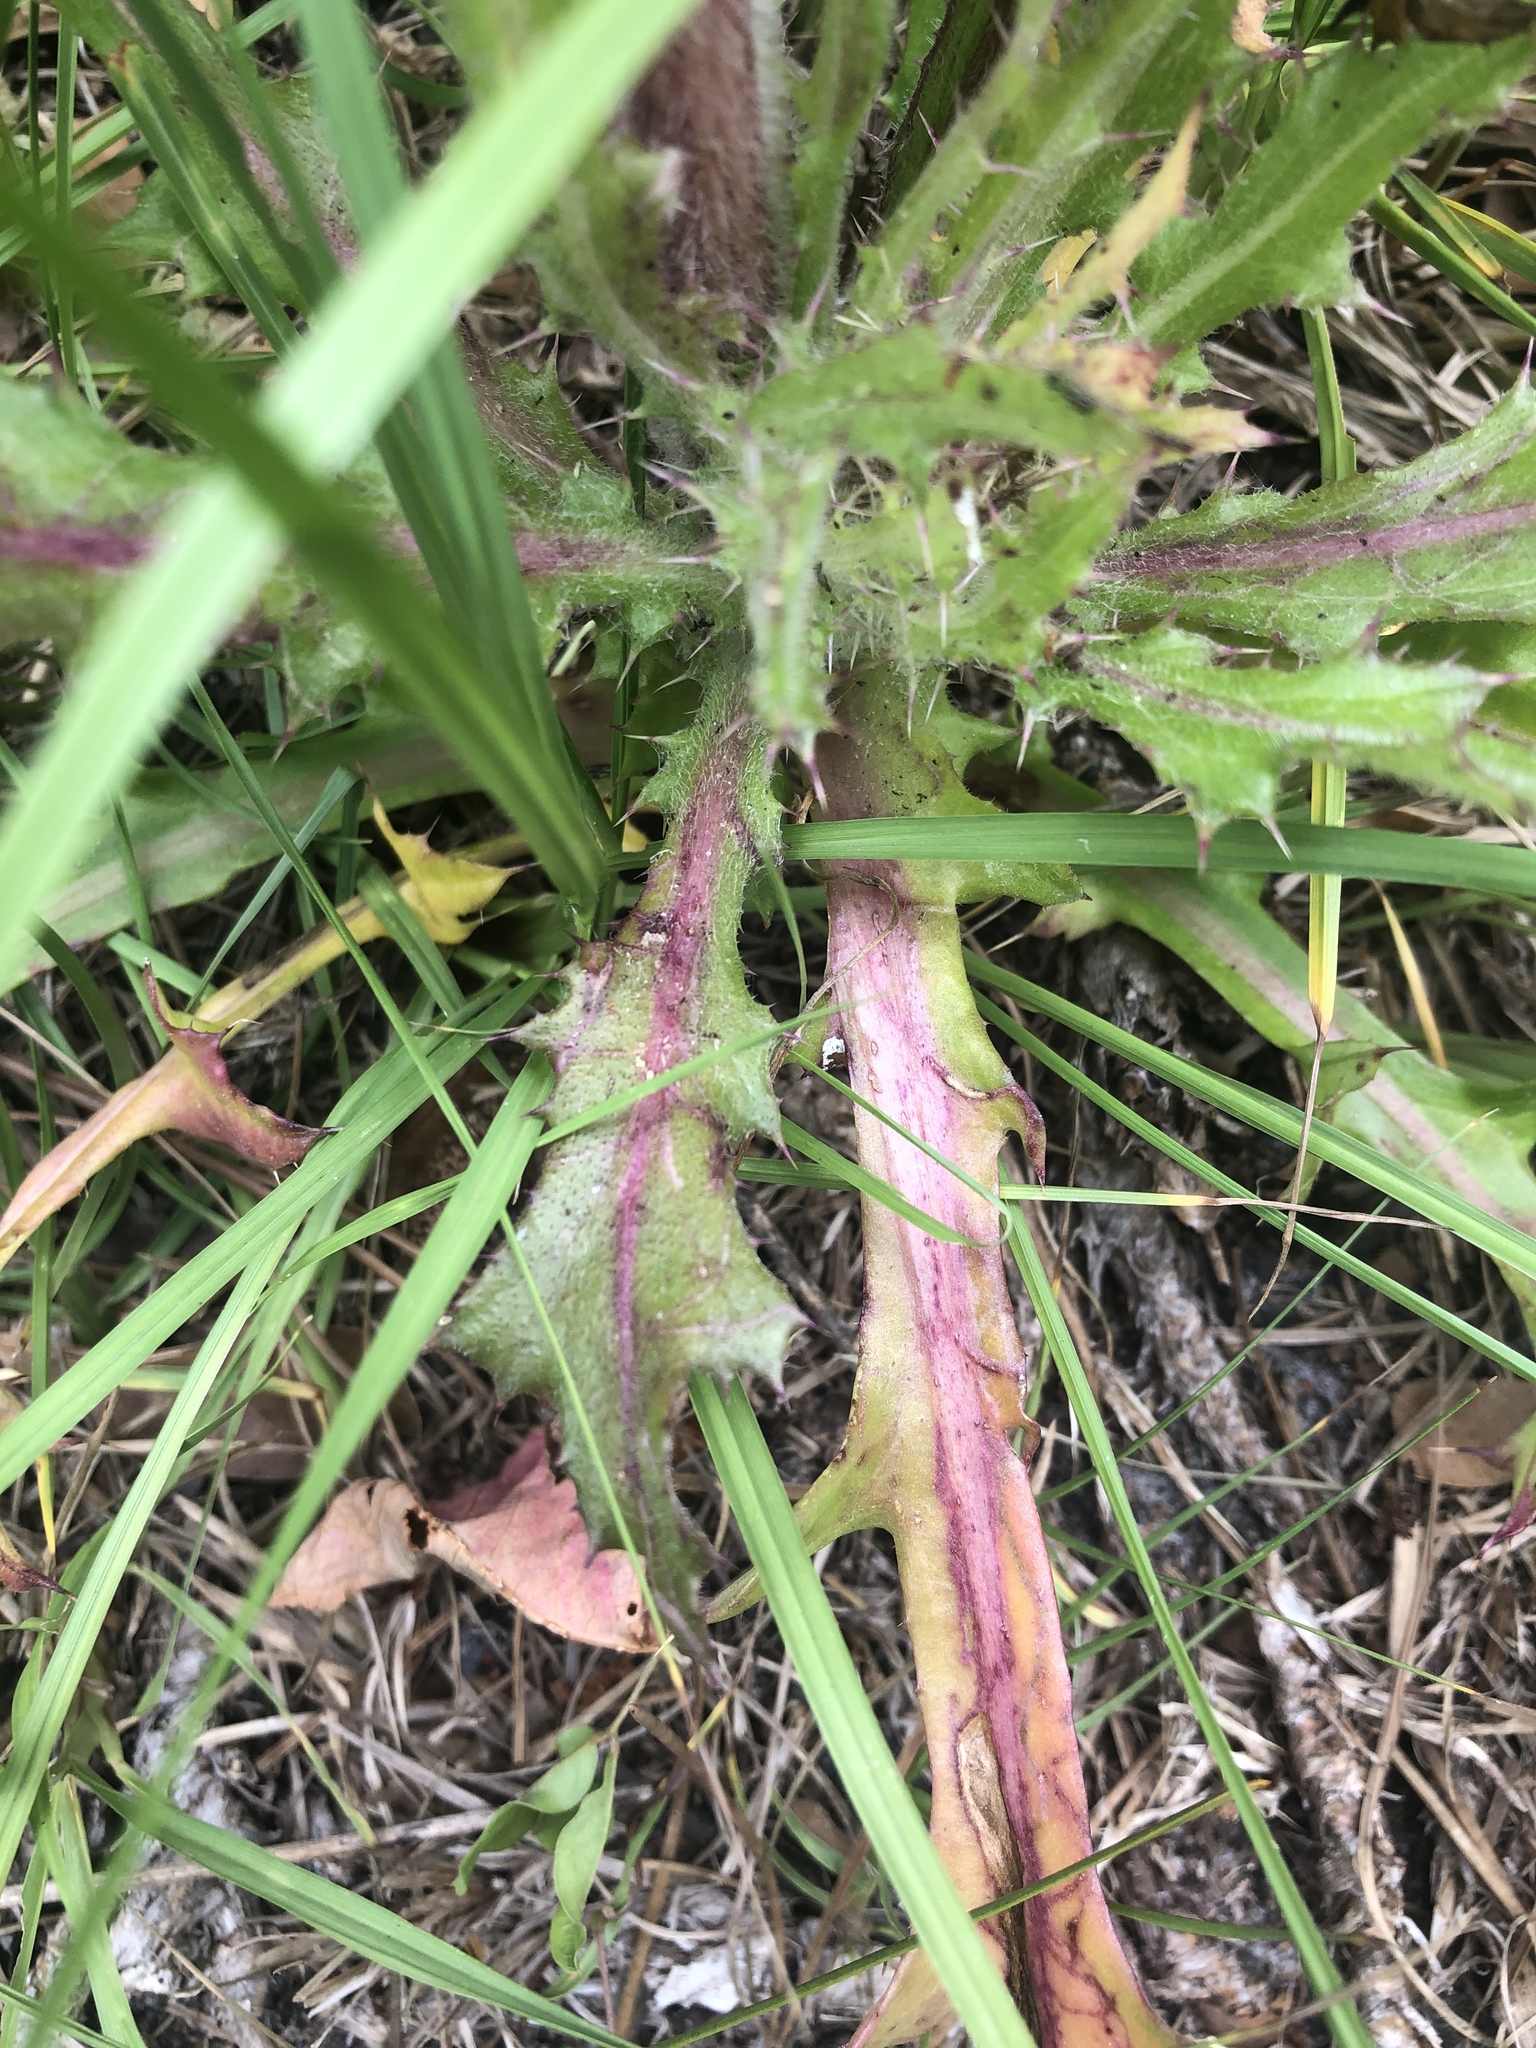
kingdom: Plantae
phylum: Tracheophyta
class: Magnoliopsida
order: Asterales
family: Asteraceae
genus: Cirsium
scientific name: Cirsium horridulum
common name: Bristly thistle
